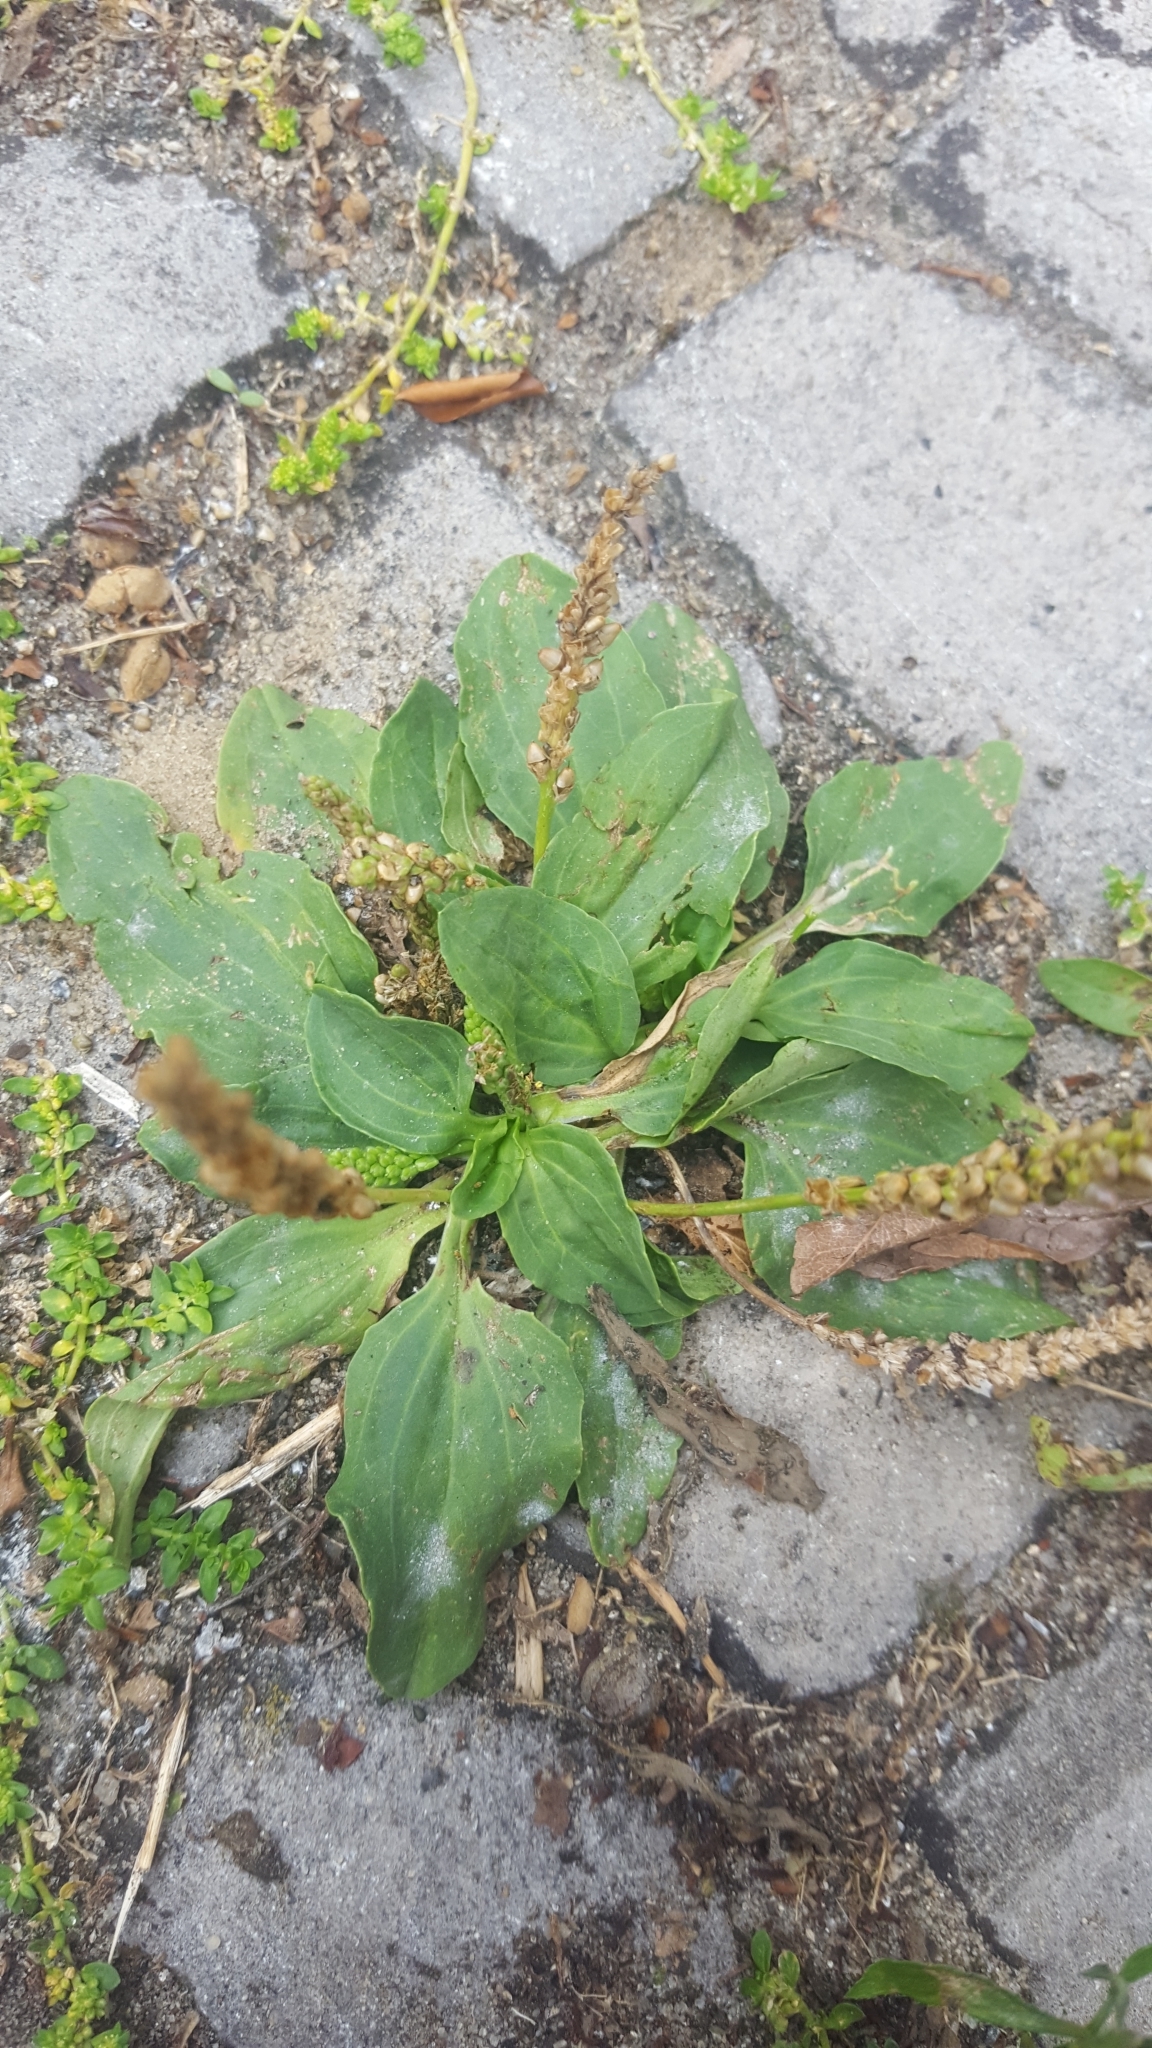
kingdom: Plantae
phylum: Tracheophyta
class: Magnoliopsida
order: Lamiales
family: Plantaginaceae
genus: Plantago
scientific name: Plantago major
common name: Common plantain
